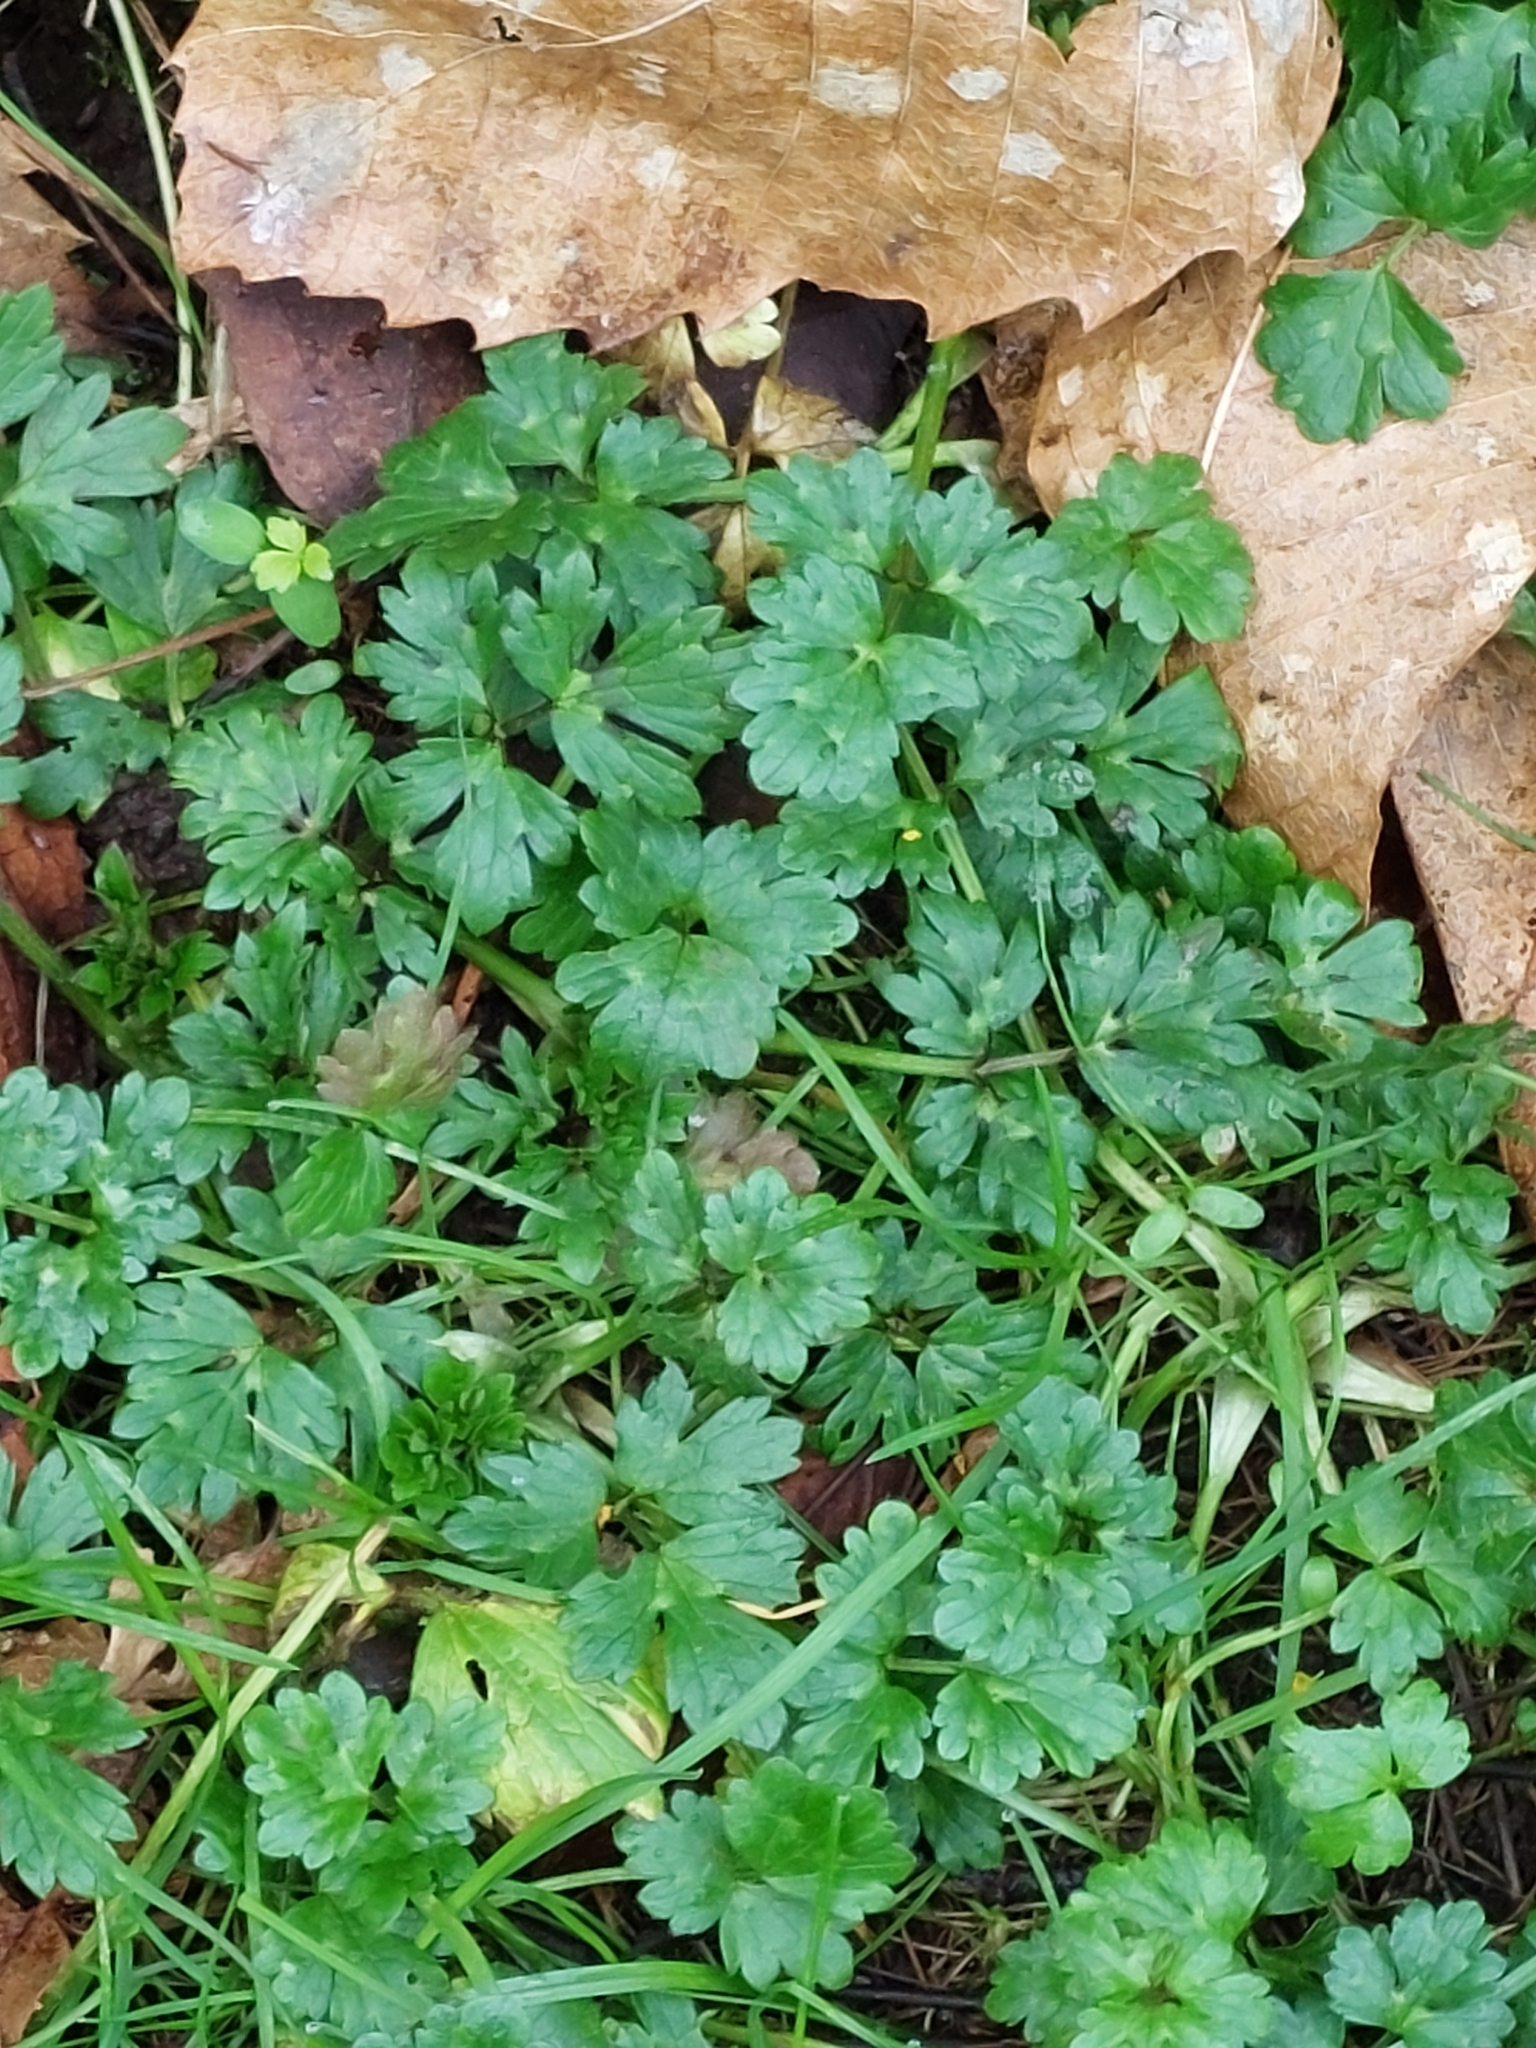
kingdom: Plantae
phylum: Tracheophyta
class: Magnoliopsida
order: Ranunculales
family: Ranunculaceae
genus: Ranunculus
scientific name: Ranunculus repens
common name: Creeping buttercup
